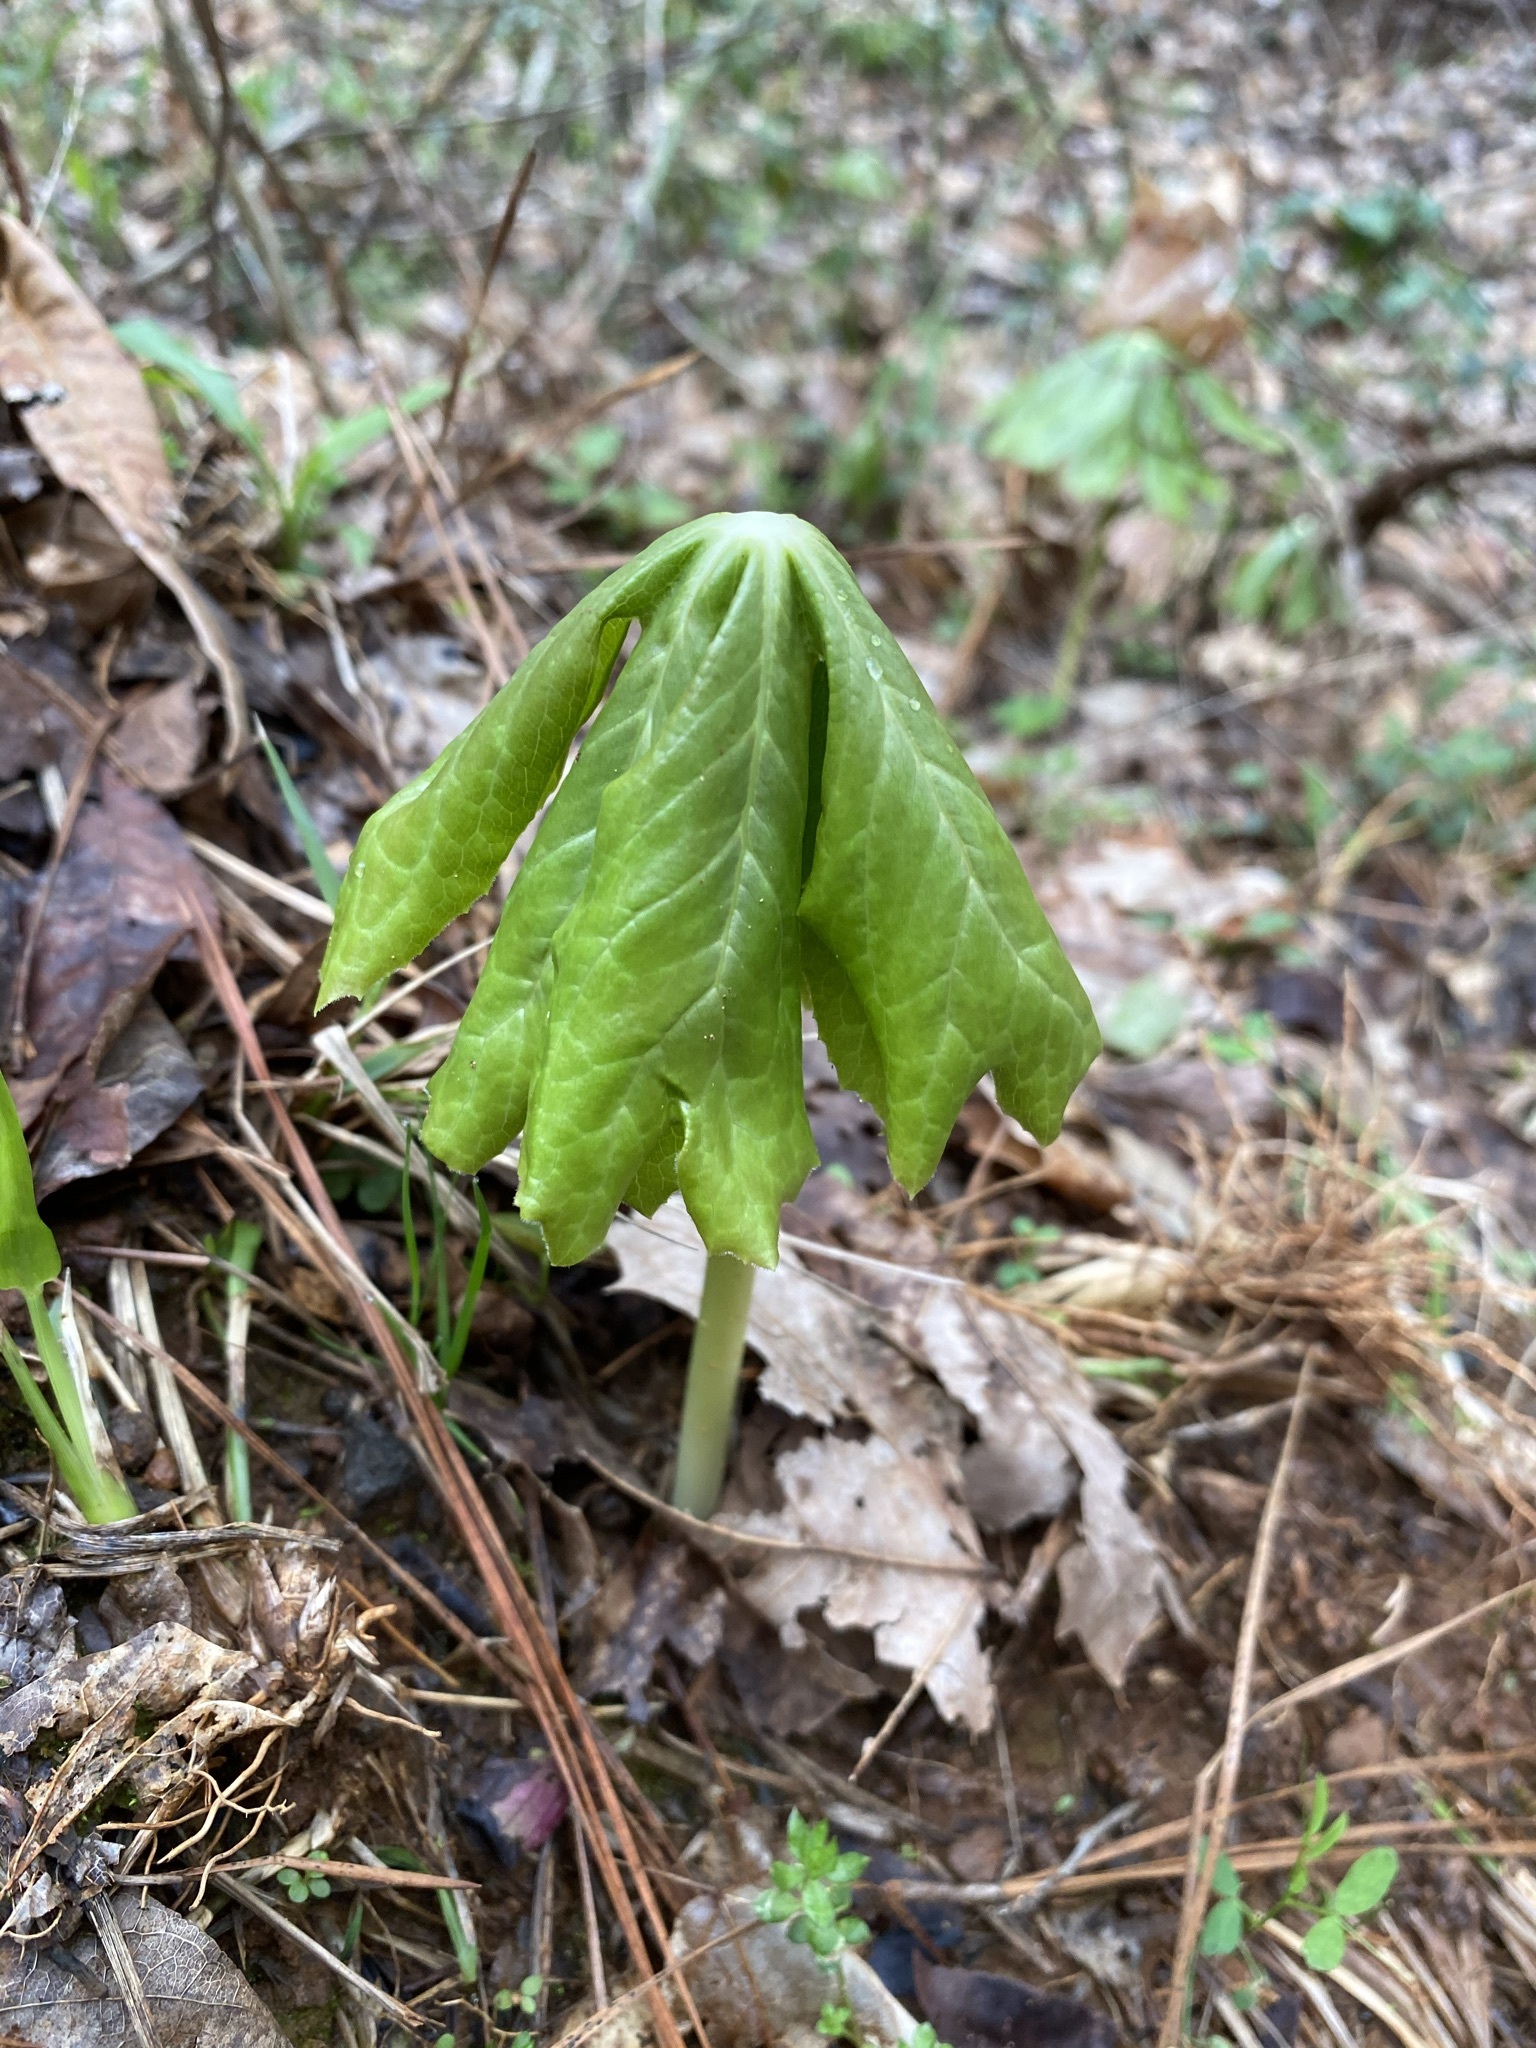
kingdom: Plantae
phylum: Tracheophyta
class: Magnoliopsida
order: Ranunculales
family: Berberidaceae
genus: Podophyllum
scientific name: Podophyllum peltatum
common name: Wild mandrake
